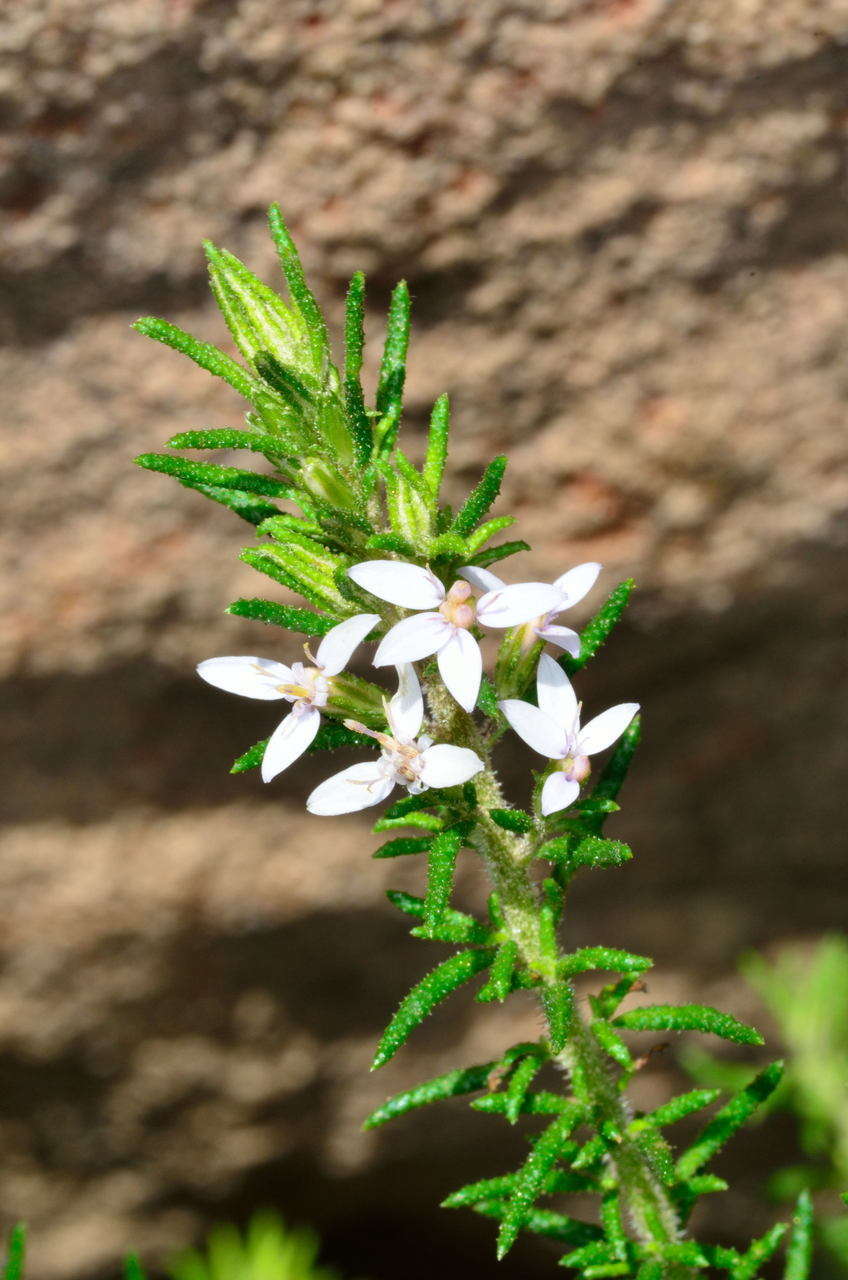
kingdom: Plantae
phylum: Tracheophyta
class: Magnoliopsida
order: Asterales
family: Asteraceae
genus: Olearia
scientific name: Olearia ramulosa
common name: Twiggy daisybush
